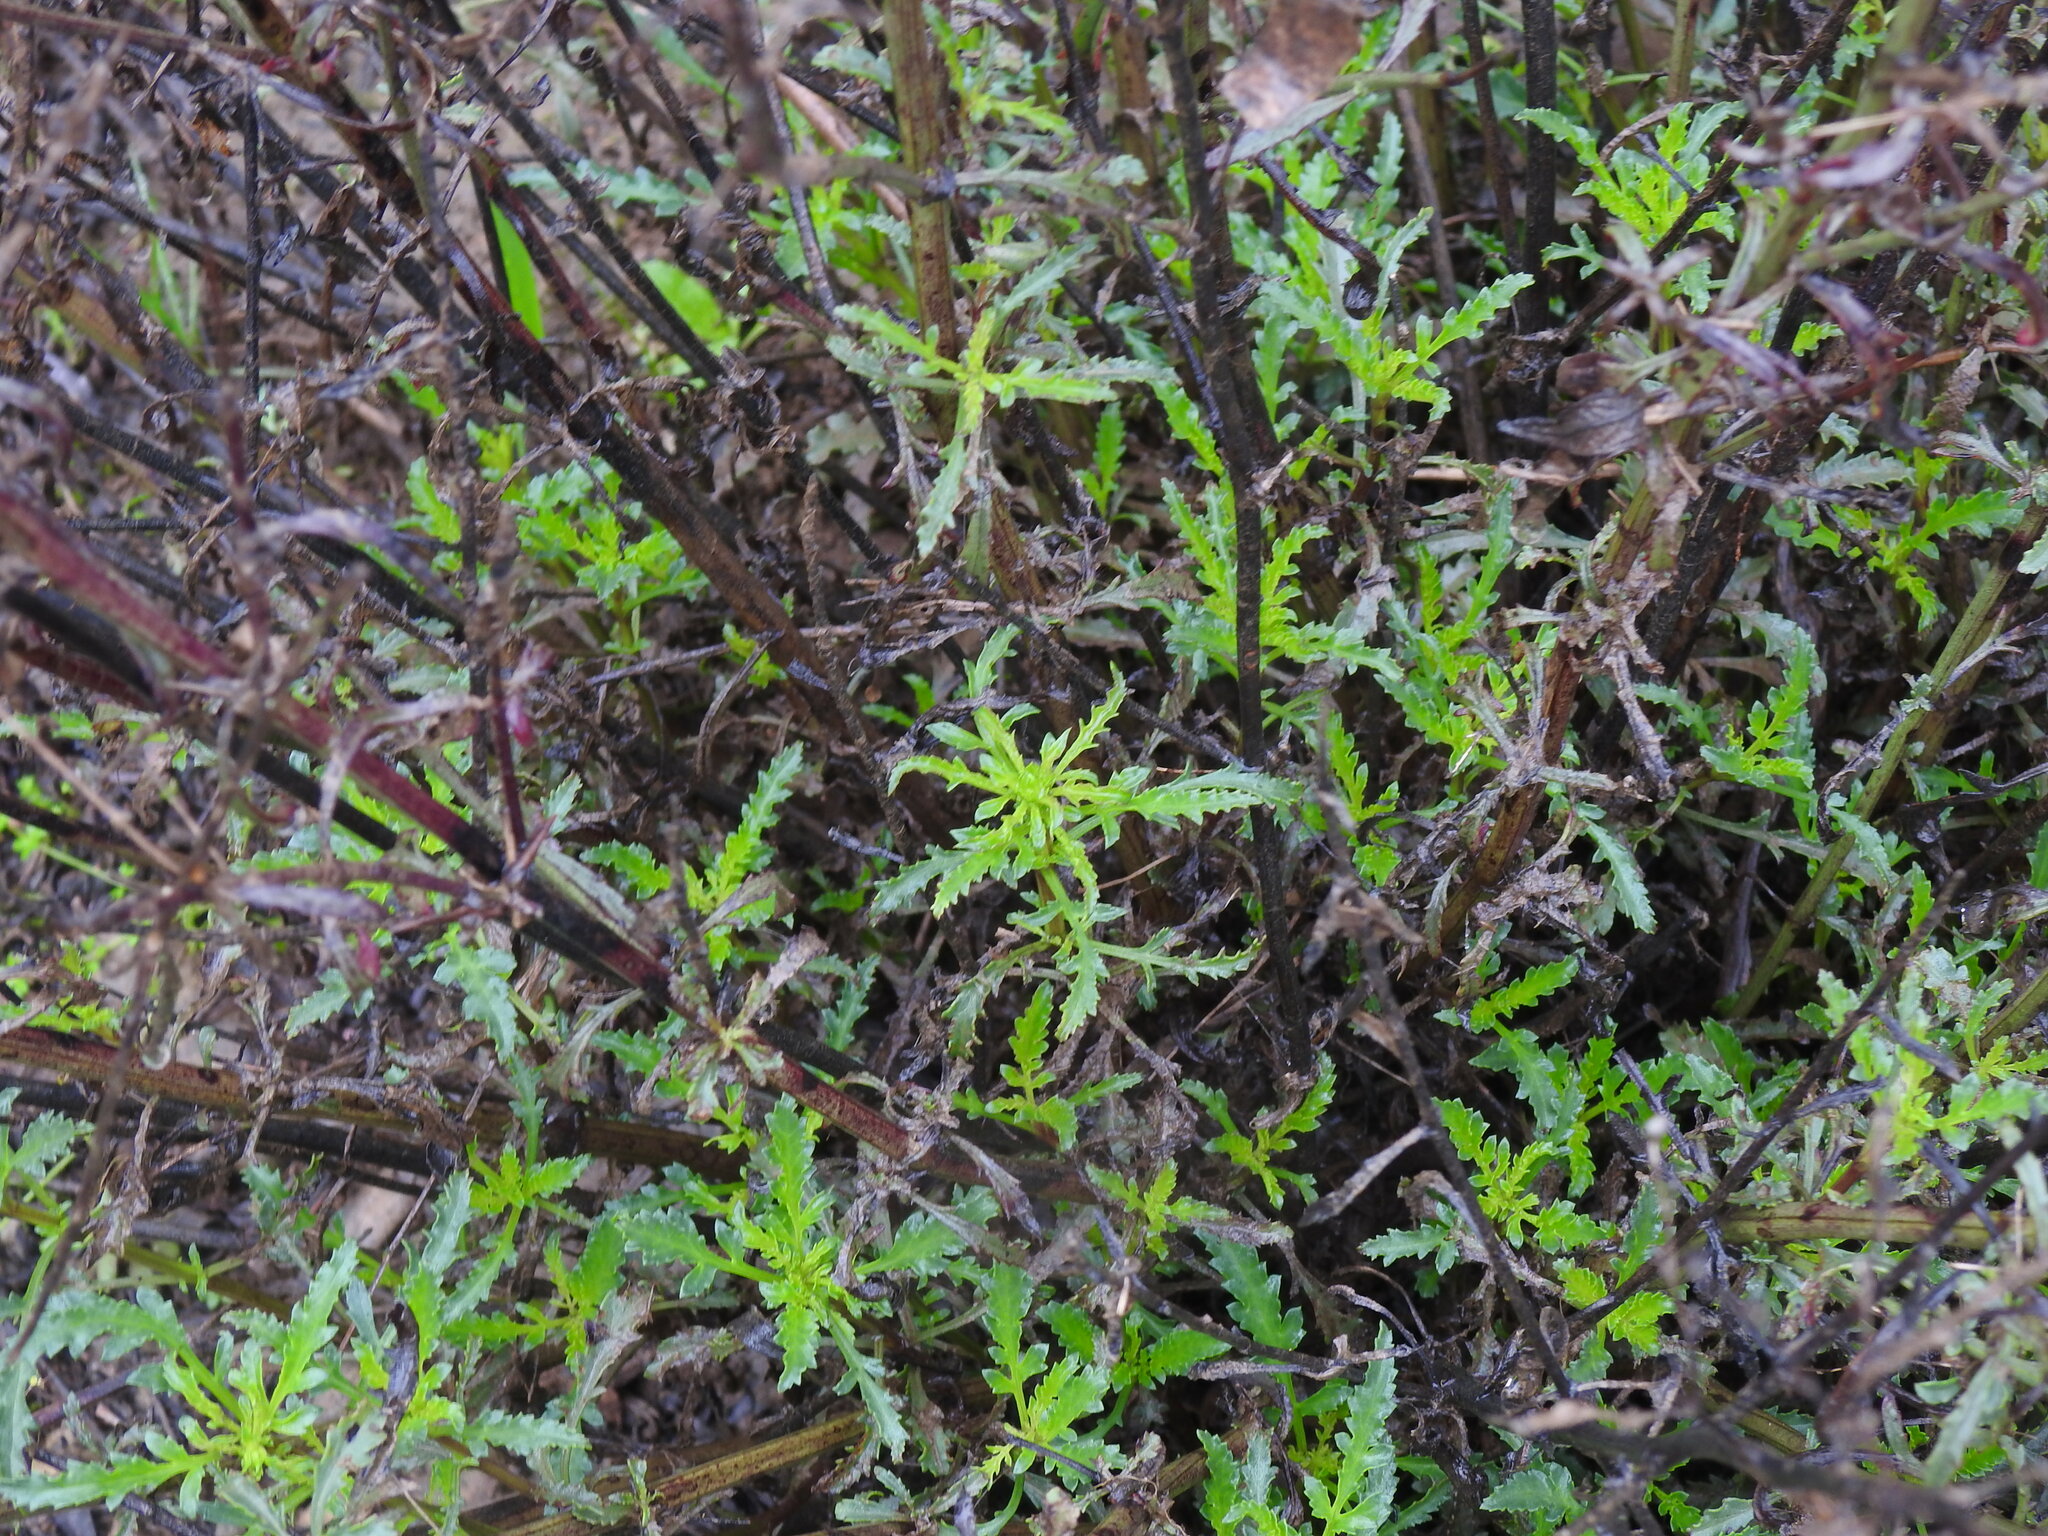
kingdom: Plantae
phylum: Tracheophyta
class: Magnoliopsida
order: Lamiales
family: Scrophulariaceae
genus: Scrophularia
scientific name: Scrophularia canina
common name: French figwort
